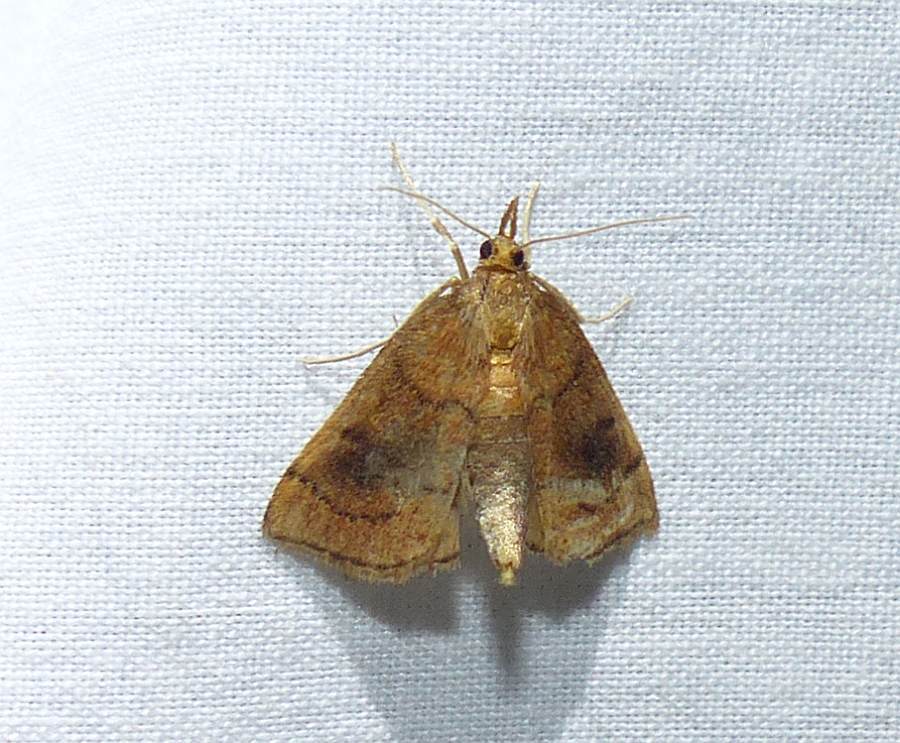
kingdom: Animalia
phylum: Arthropoda
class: Insecta
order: Lepidoptera
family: Crambidae
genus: Fumibotys
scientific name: Fumibotys fumalis
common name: Mint root borer moth
